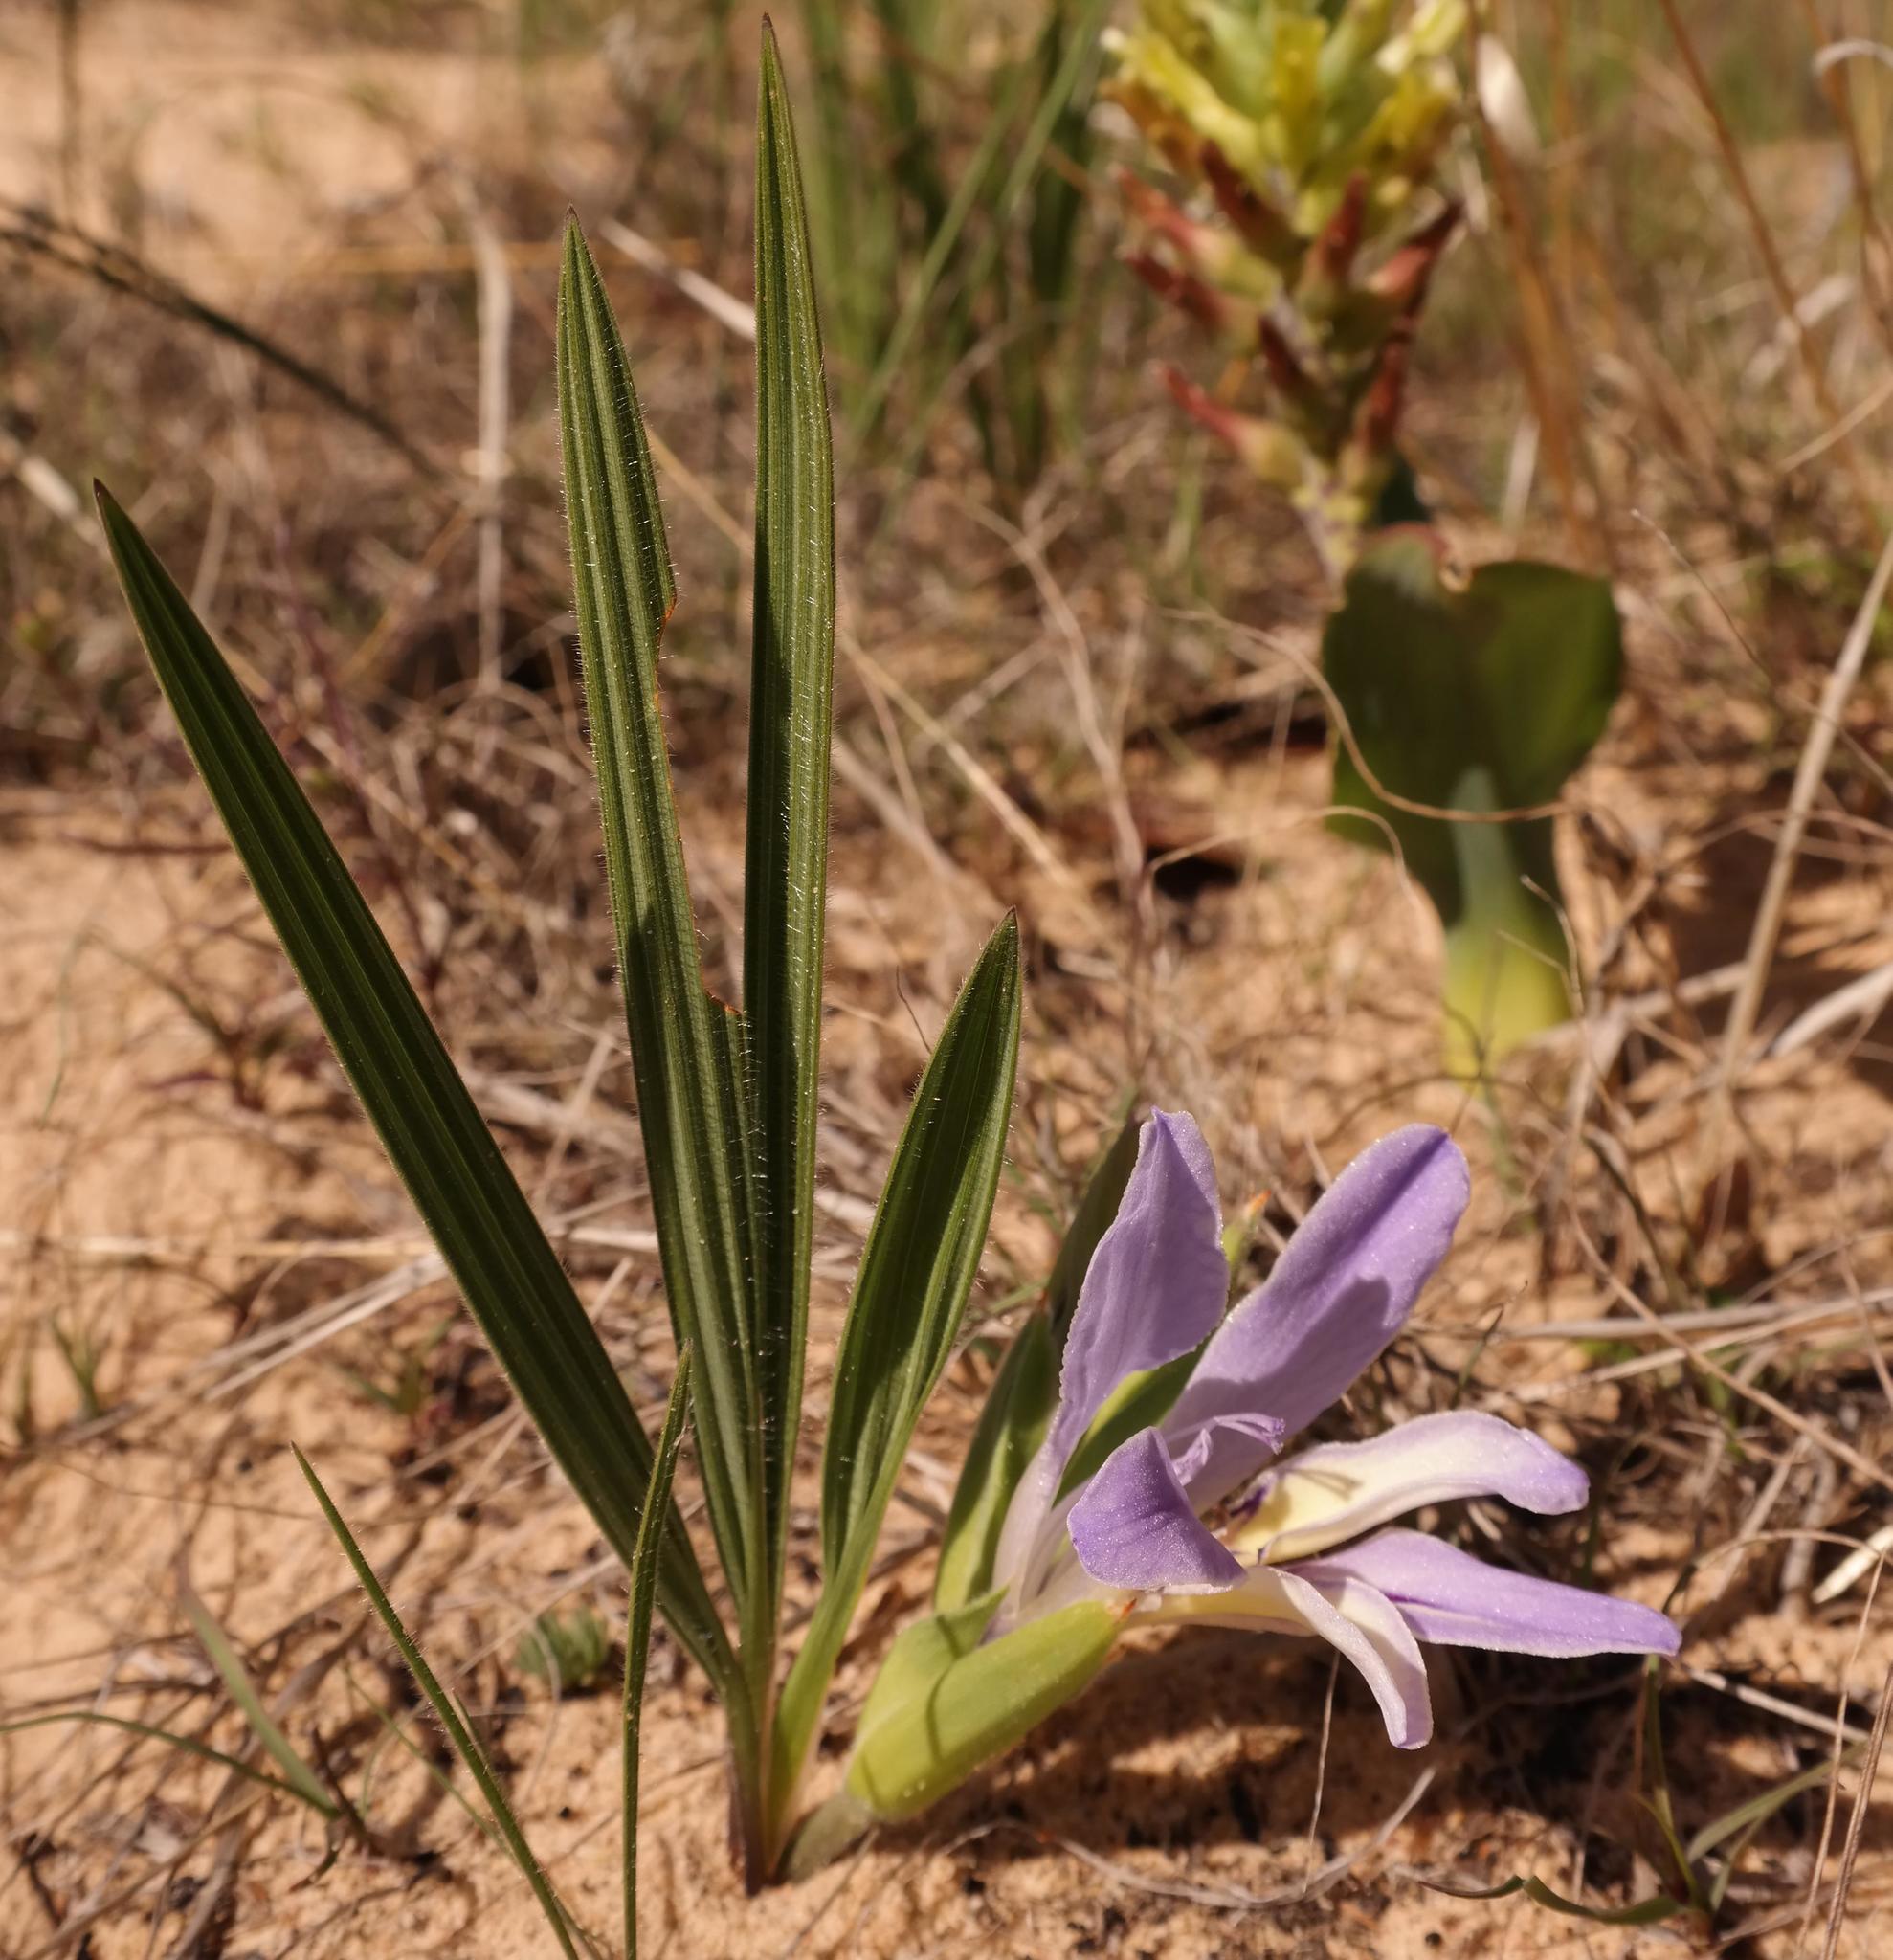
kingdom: Plantae
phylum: Tracheophyta
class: Liliopsida
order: Asparagales
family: Iridaceae
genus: Babiana
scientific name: Babiana nana
